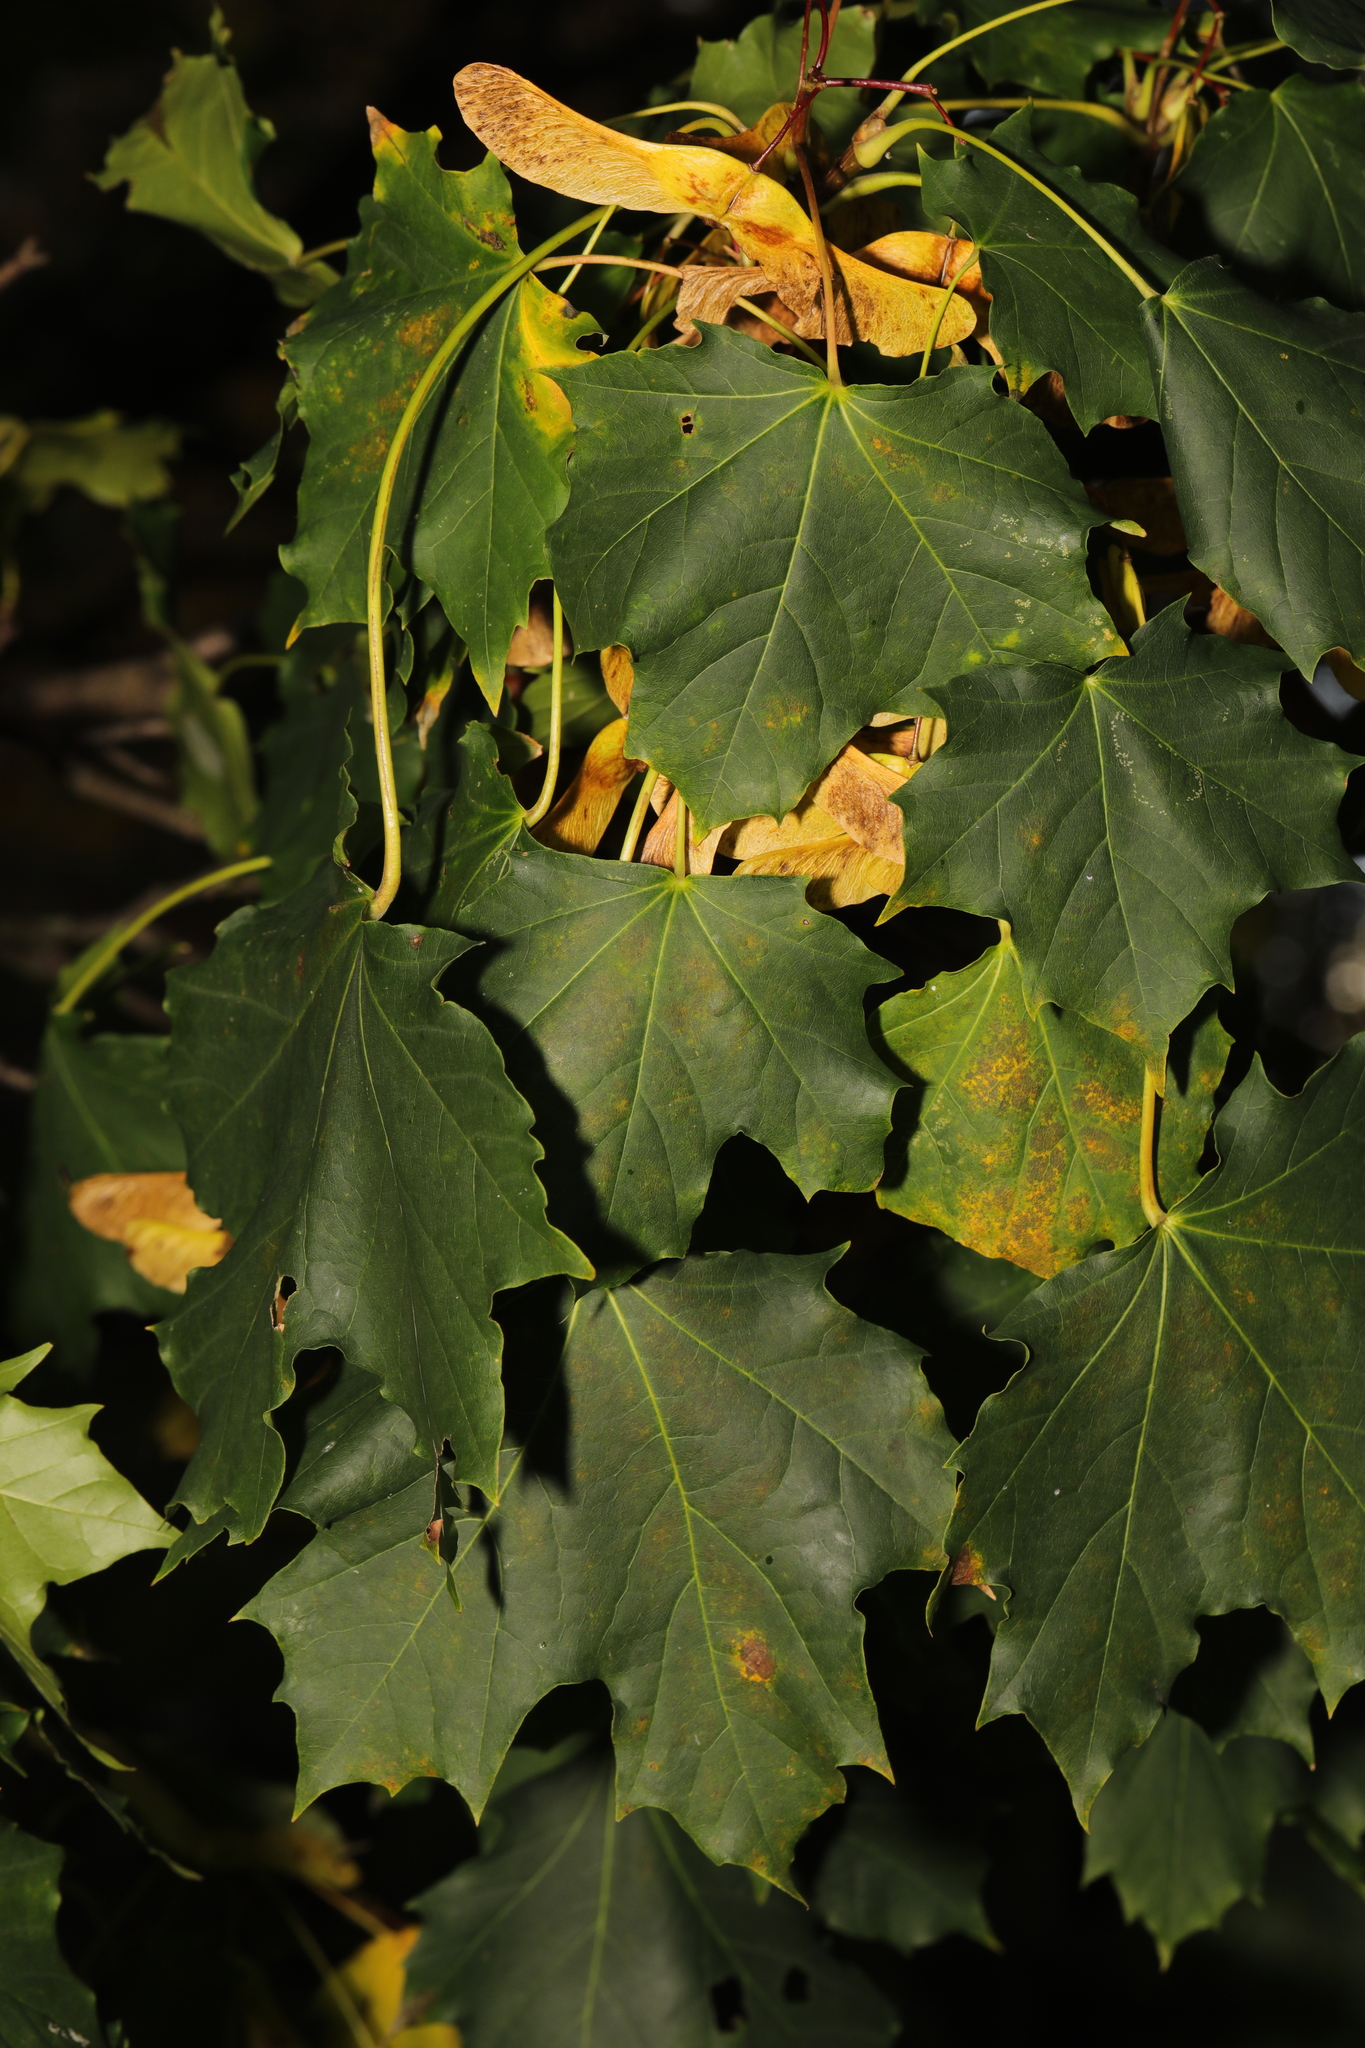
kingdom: Plantae
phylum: Tracheophyta
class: Magnoliopsida
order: Sapindales
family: Sapindaceae
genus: Acer
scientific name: Acer platanoides
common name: Norway maple
